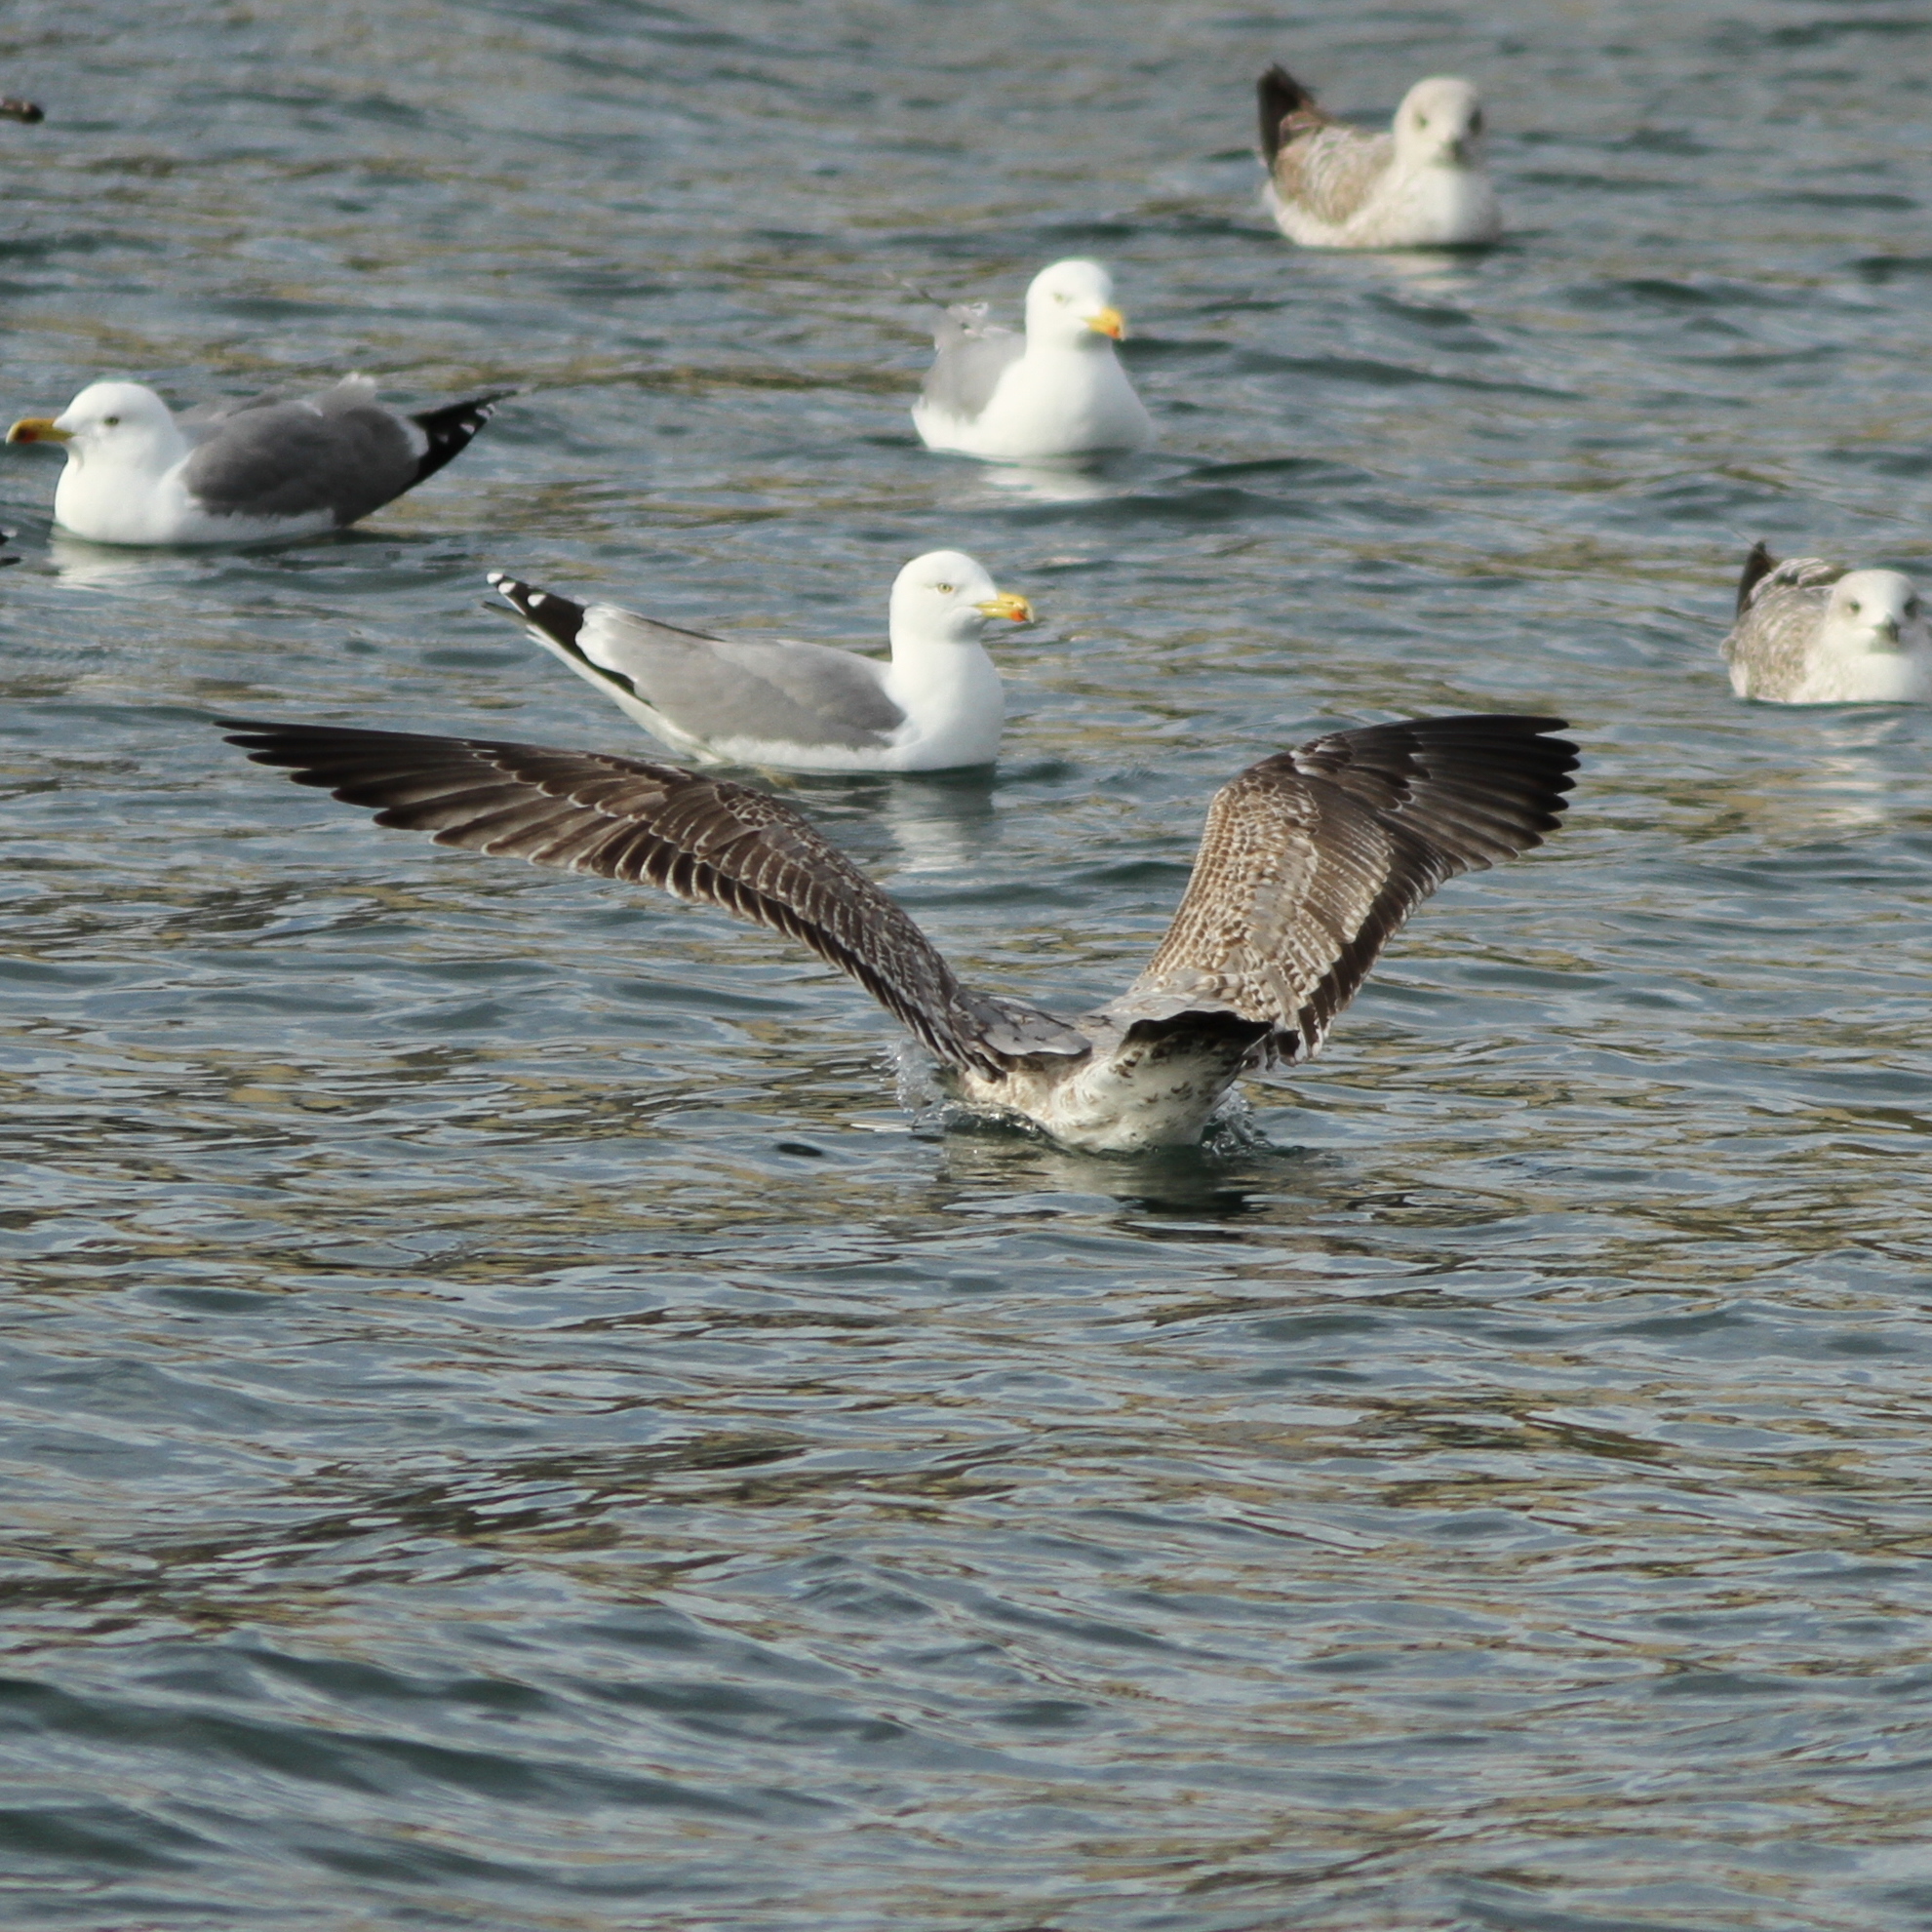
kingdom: Animalia
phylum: Chordata
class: Aves
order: Charadriiformes
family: Laridae
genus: Larus
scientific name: Larus michahellis
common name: Yellow-legged gull
